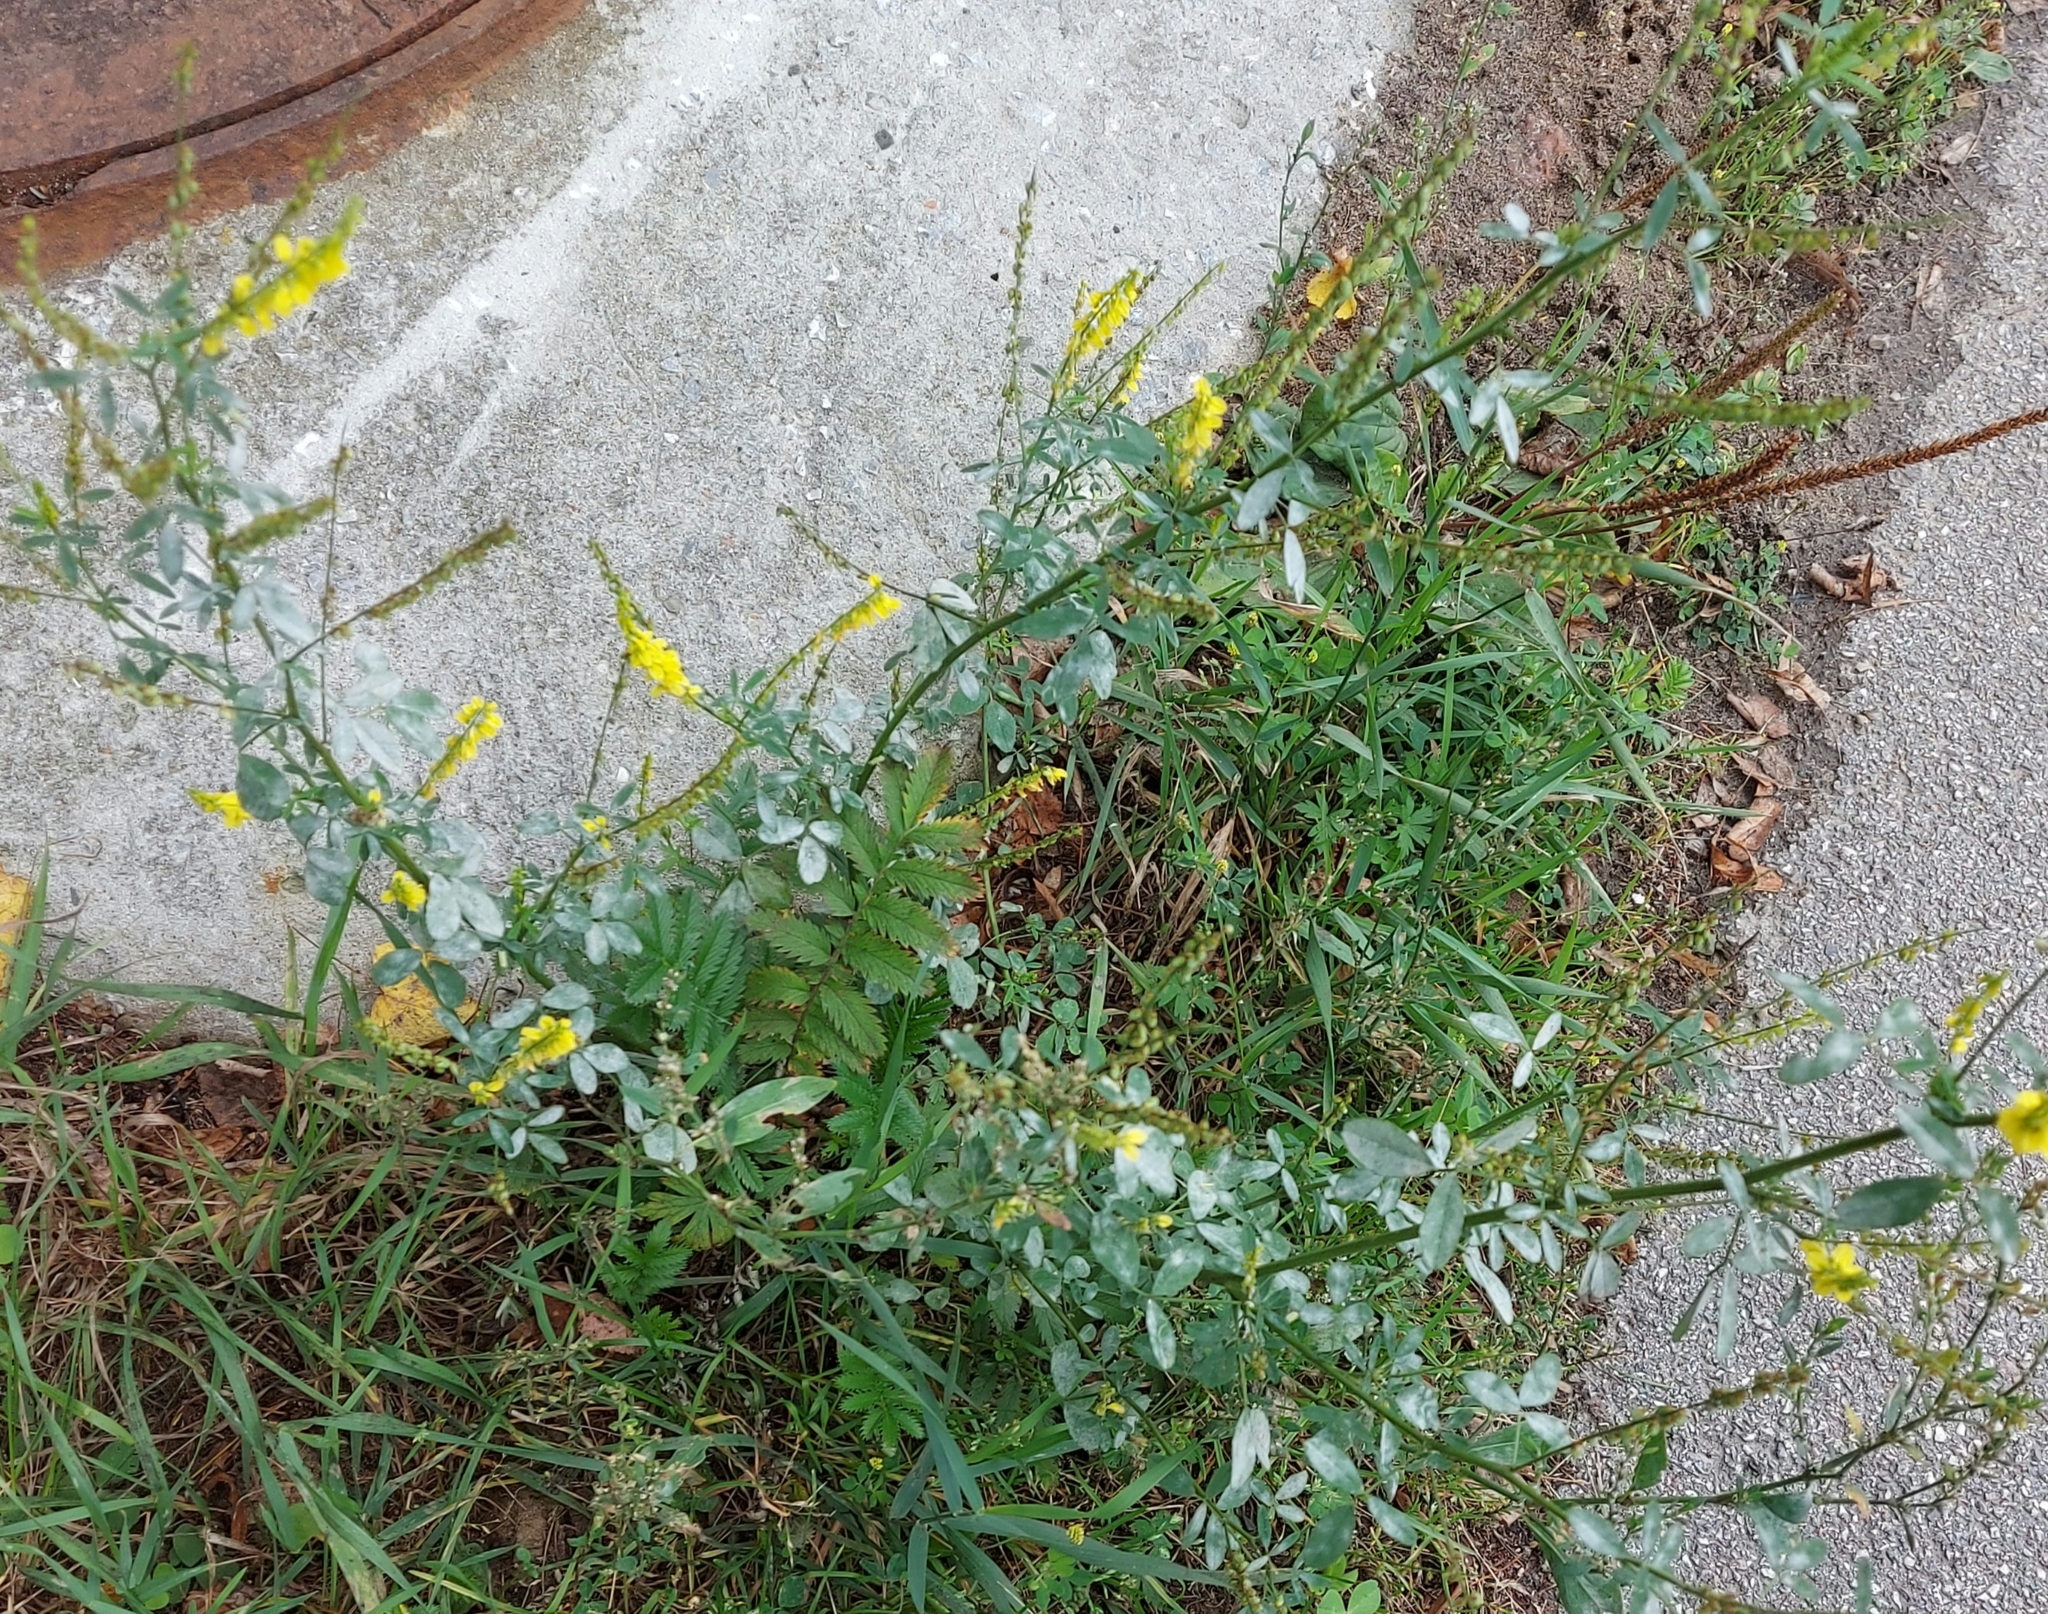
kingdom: Plantae
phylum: Tracheophyta
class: Magnoliopsida
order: Fabales
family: Fabaceae
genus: Melilotus
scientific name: Melilotus officinalis
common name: Sweetclover
